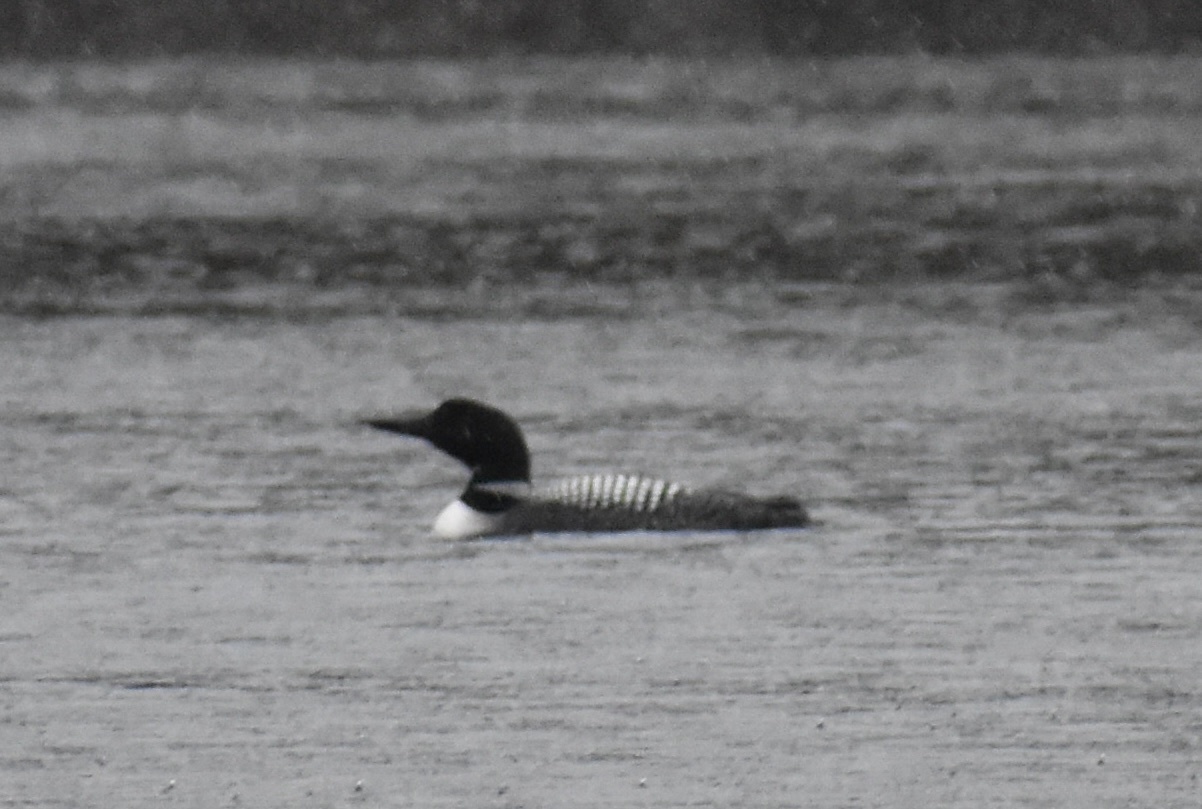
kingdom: Animalia
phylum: Chordata
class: Aves
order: Gaviiformes
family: Gaviidae
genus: Gavia
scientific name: Gavia immer
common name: Common loon
